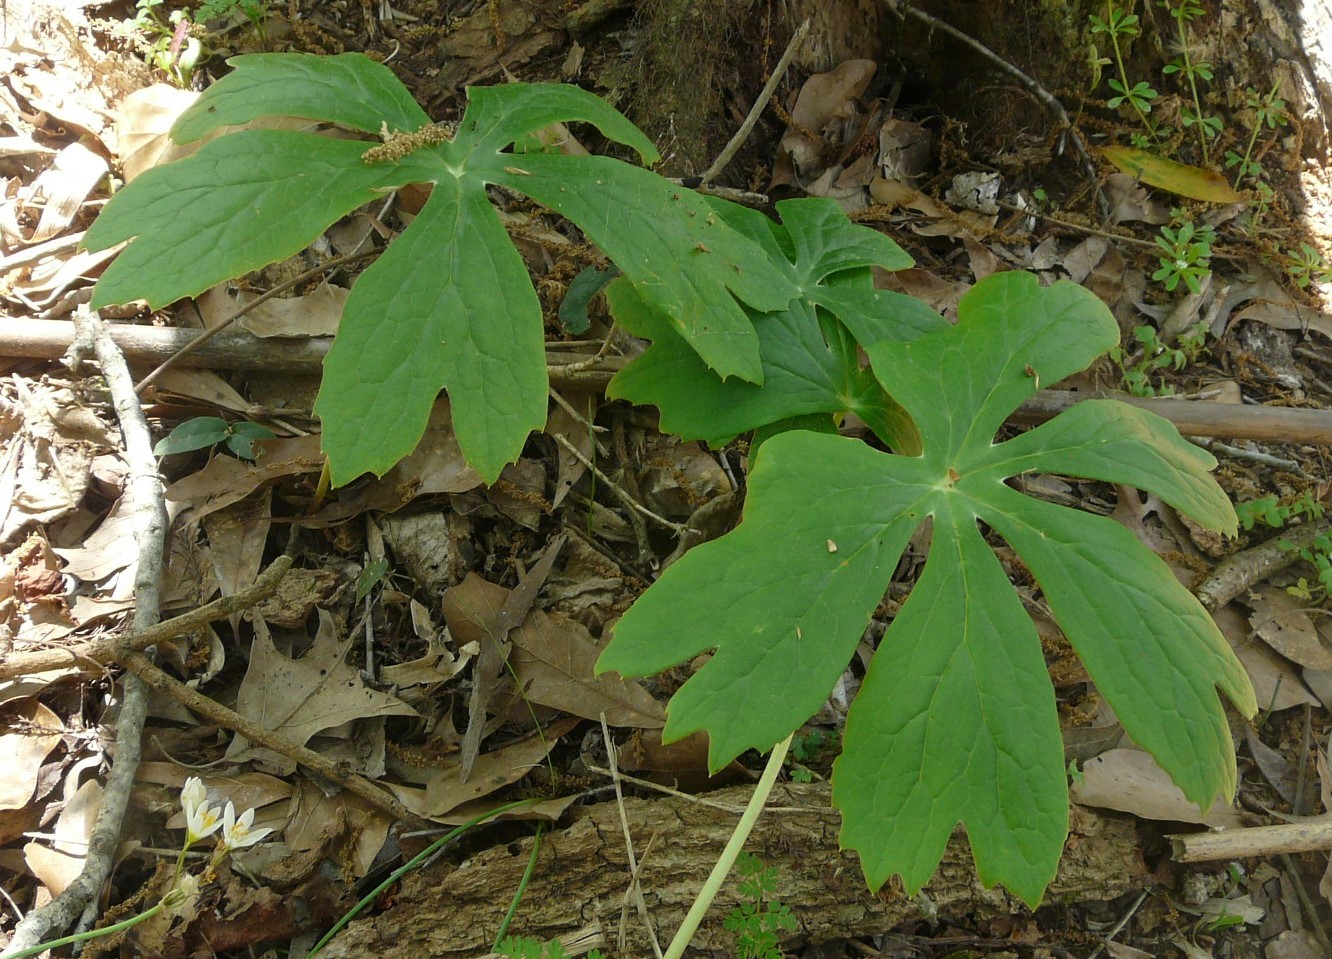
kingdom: Plantae
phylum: Tracheophyta
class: Magnoliopsida
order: Ranunculales
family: Berberidaceae
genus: Podophyllum
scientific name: Podophyllum peltatum
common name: Wild mandrake
